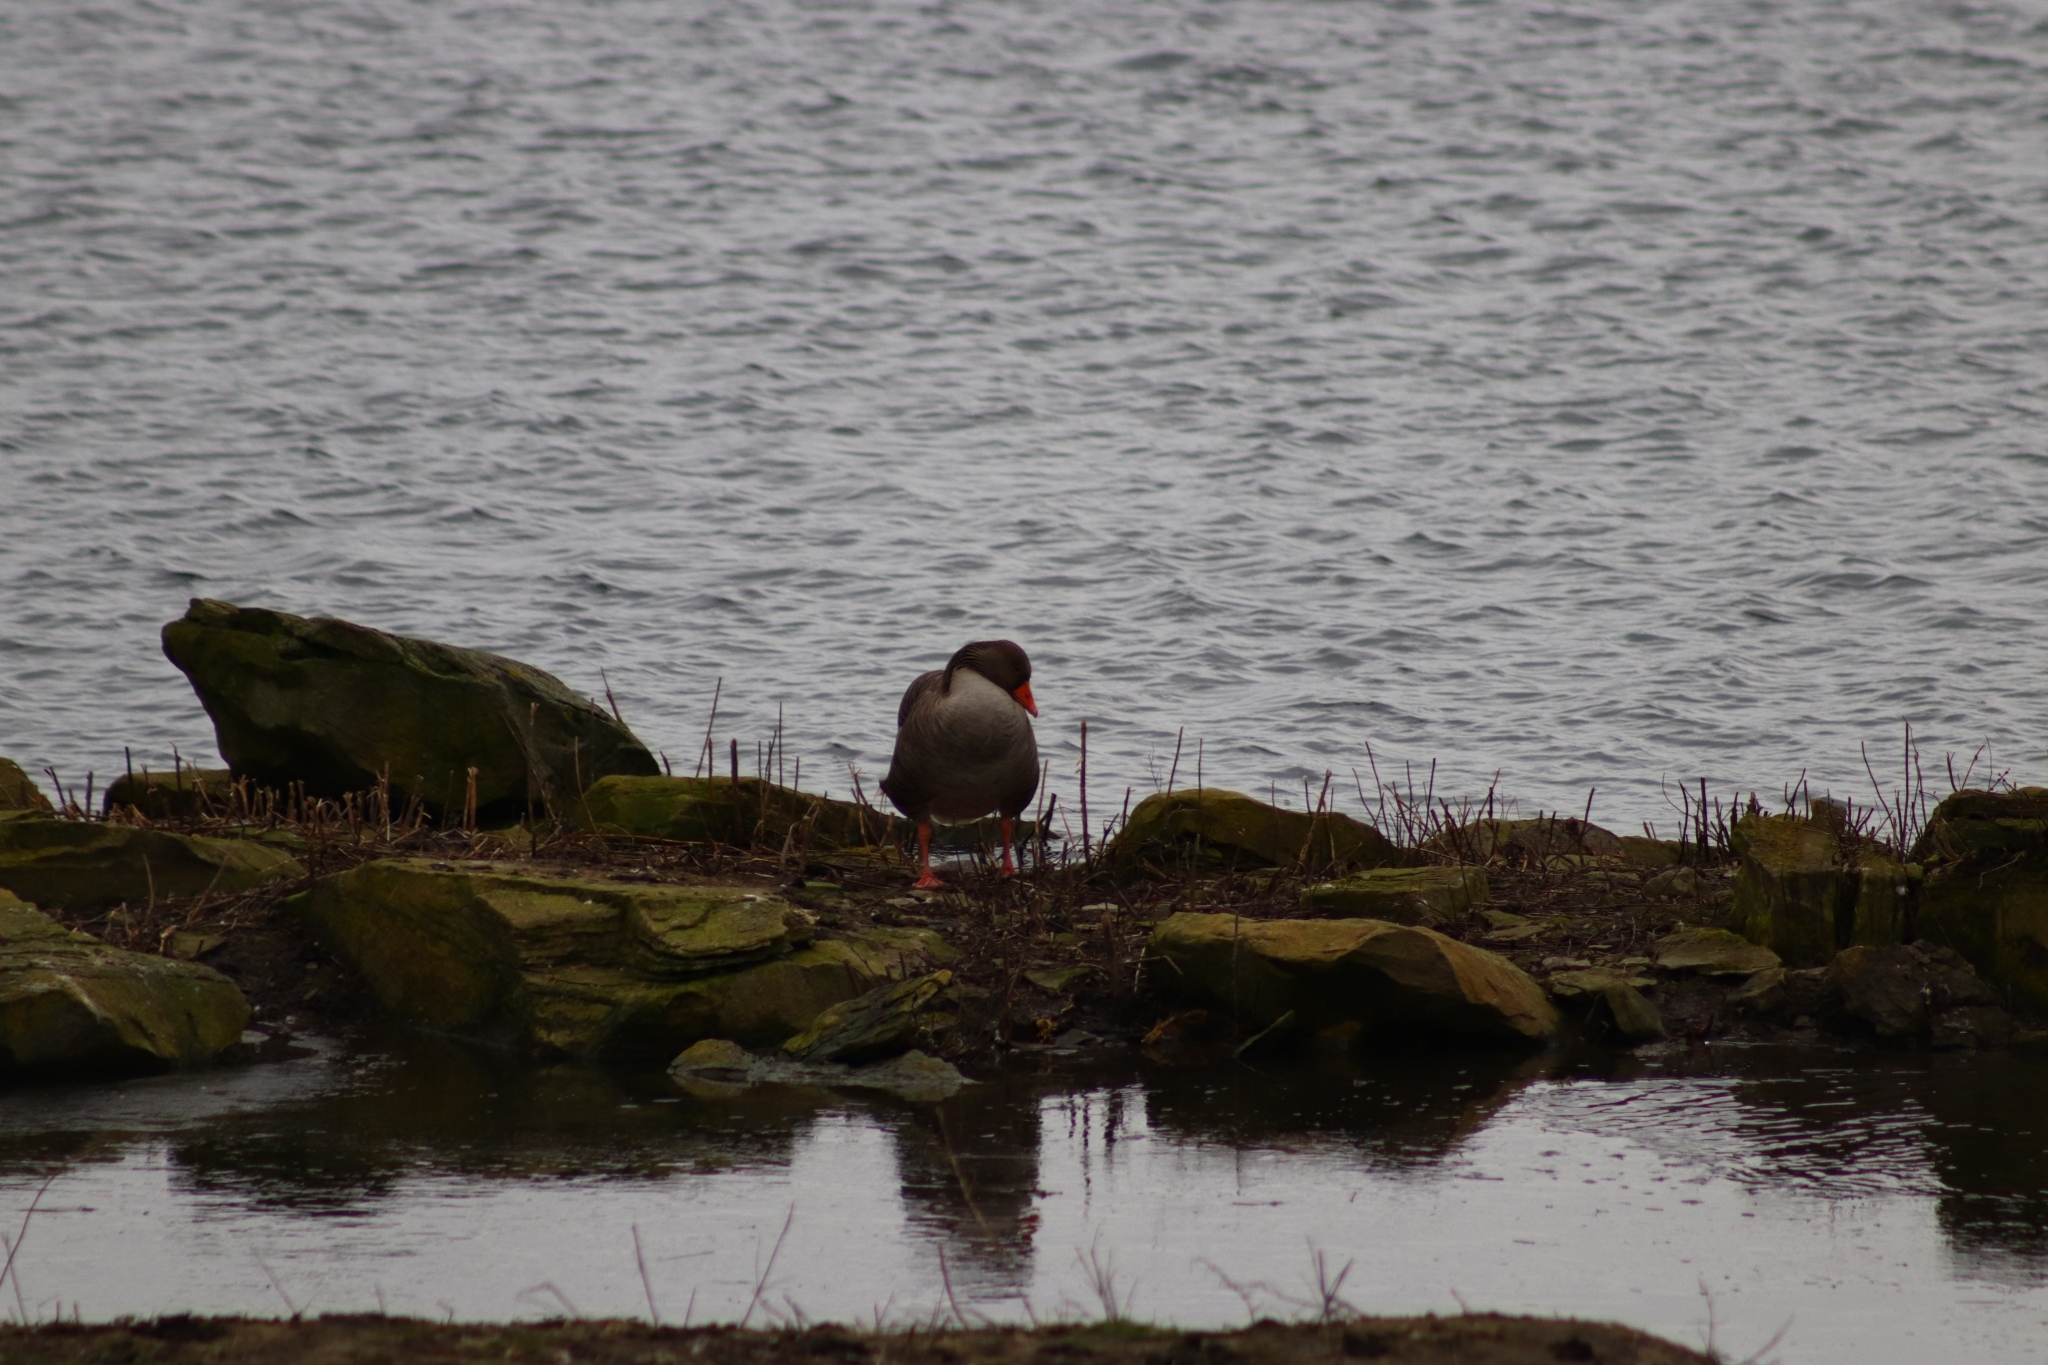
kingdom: Animalia
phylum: Chordata
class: Aves
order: Anseriformes
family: Anatidae
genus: Anser
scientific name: Anser anser
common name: Greylag goose
